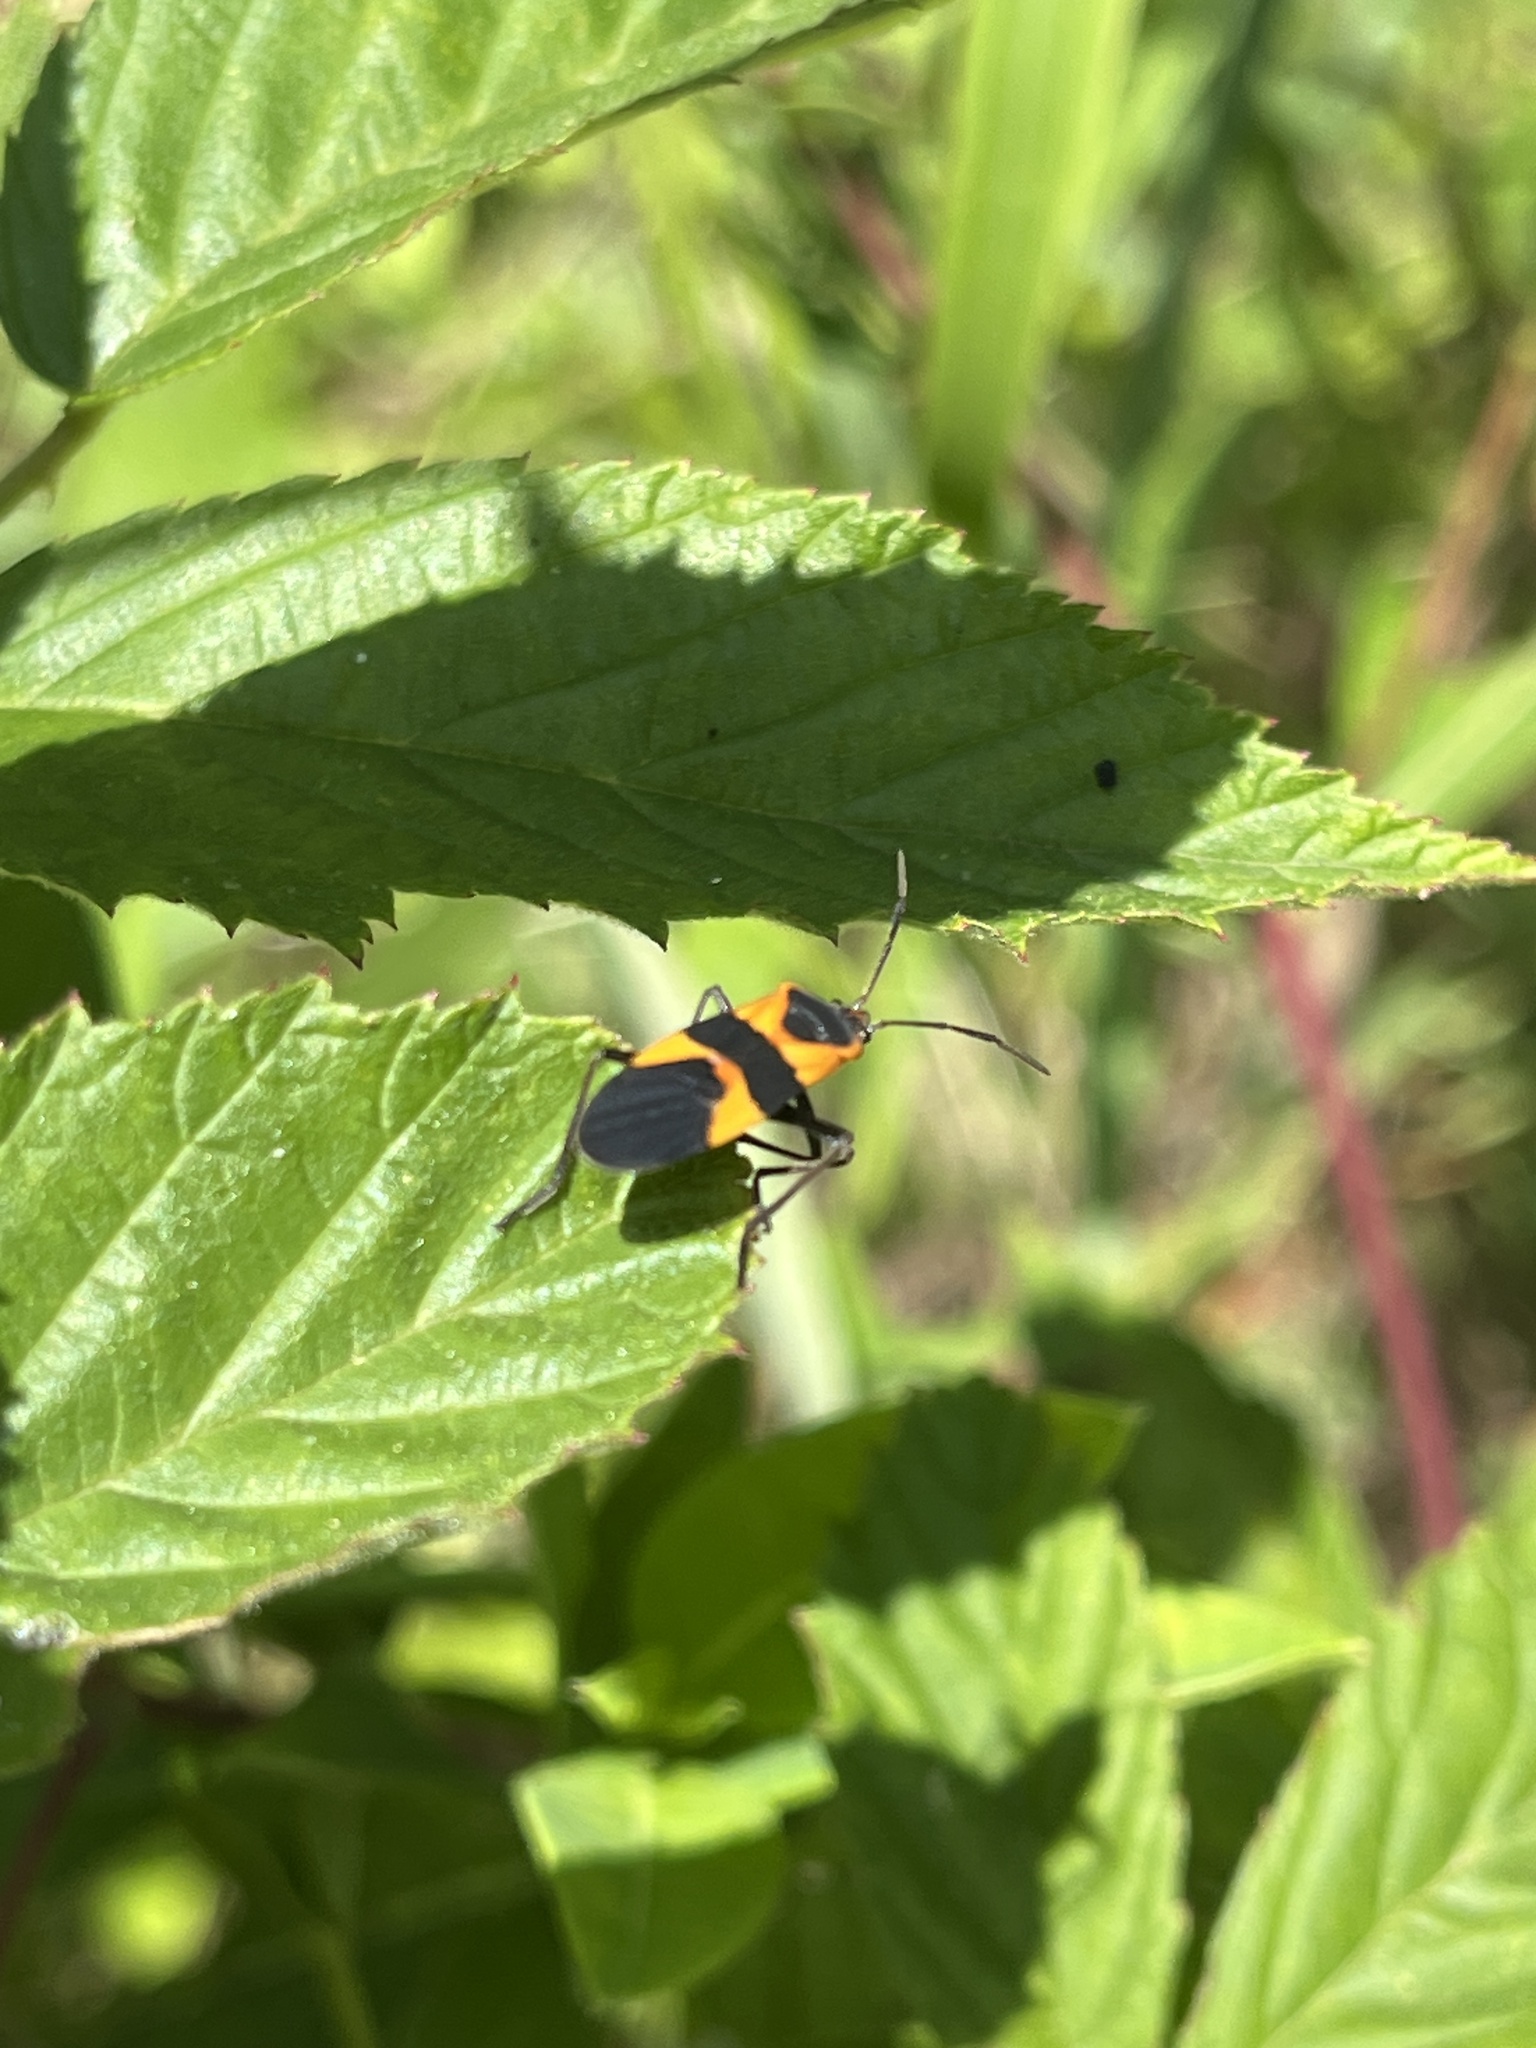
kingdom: Animalia
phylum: Arthropoda
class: Insecta
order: Hemiptera
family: Lygaeidae
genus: Oncopeltus
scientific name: Oncopeltus fasciatus
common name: Large milkweed bug
